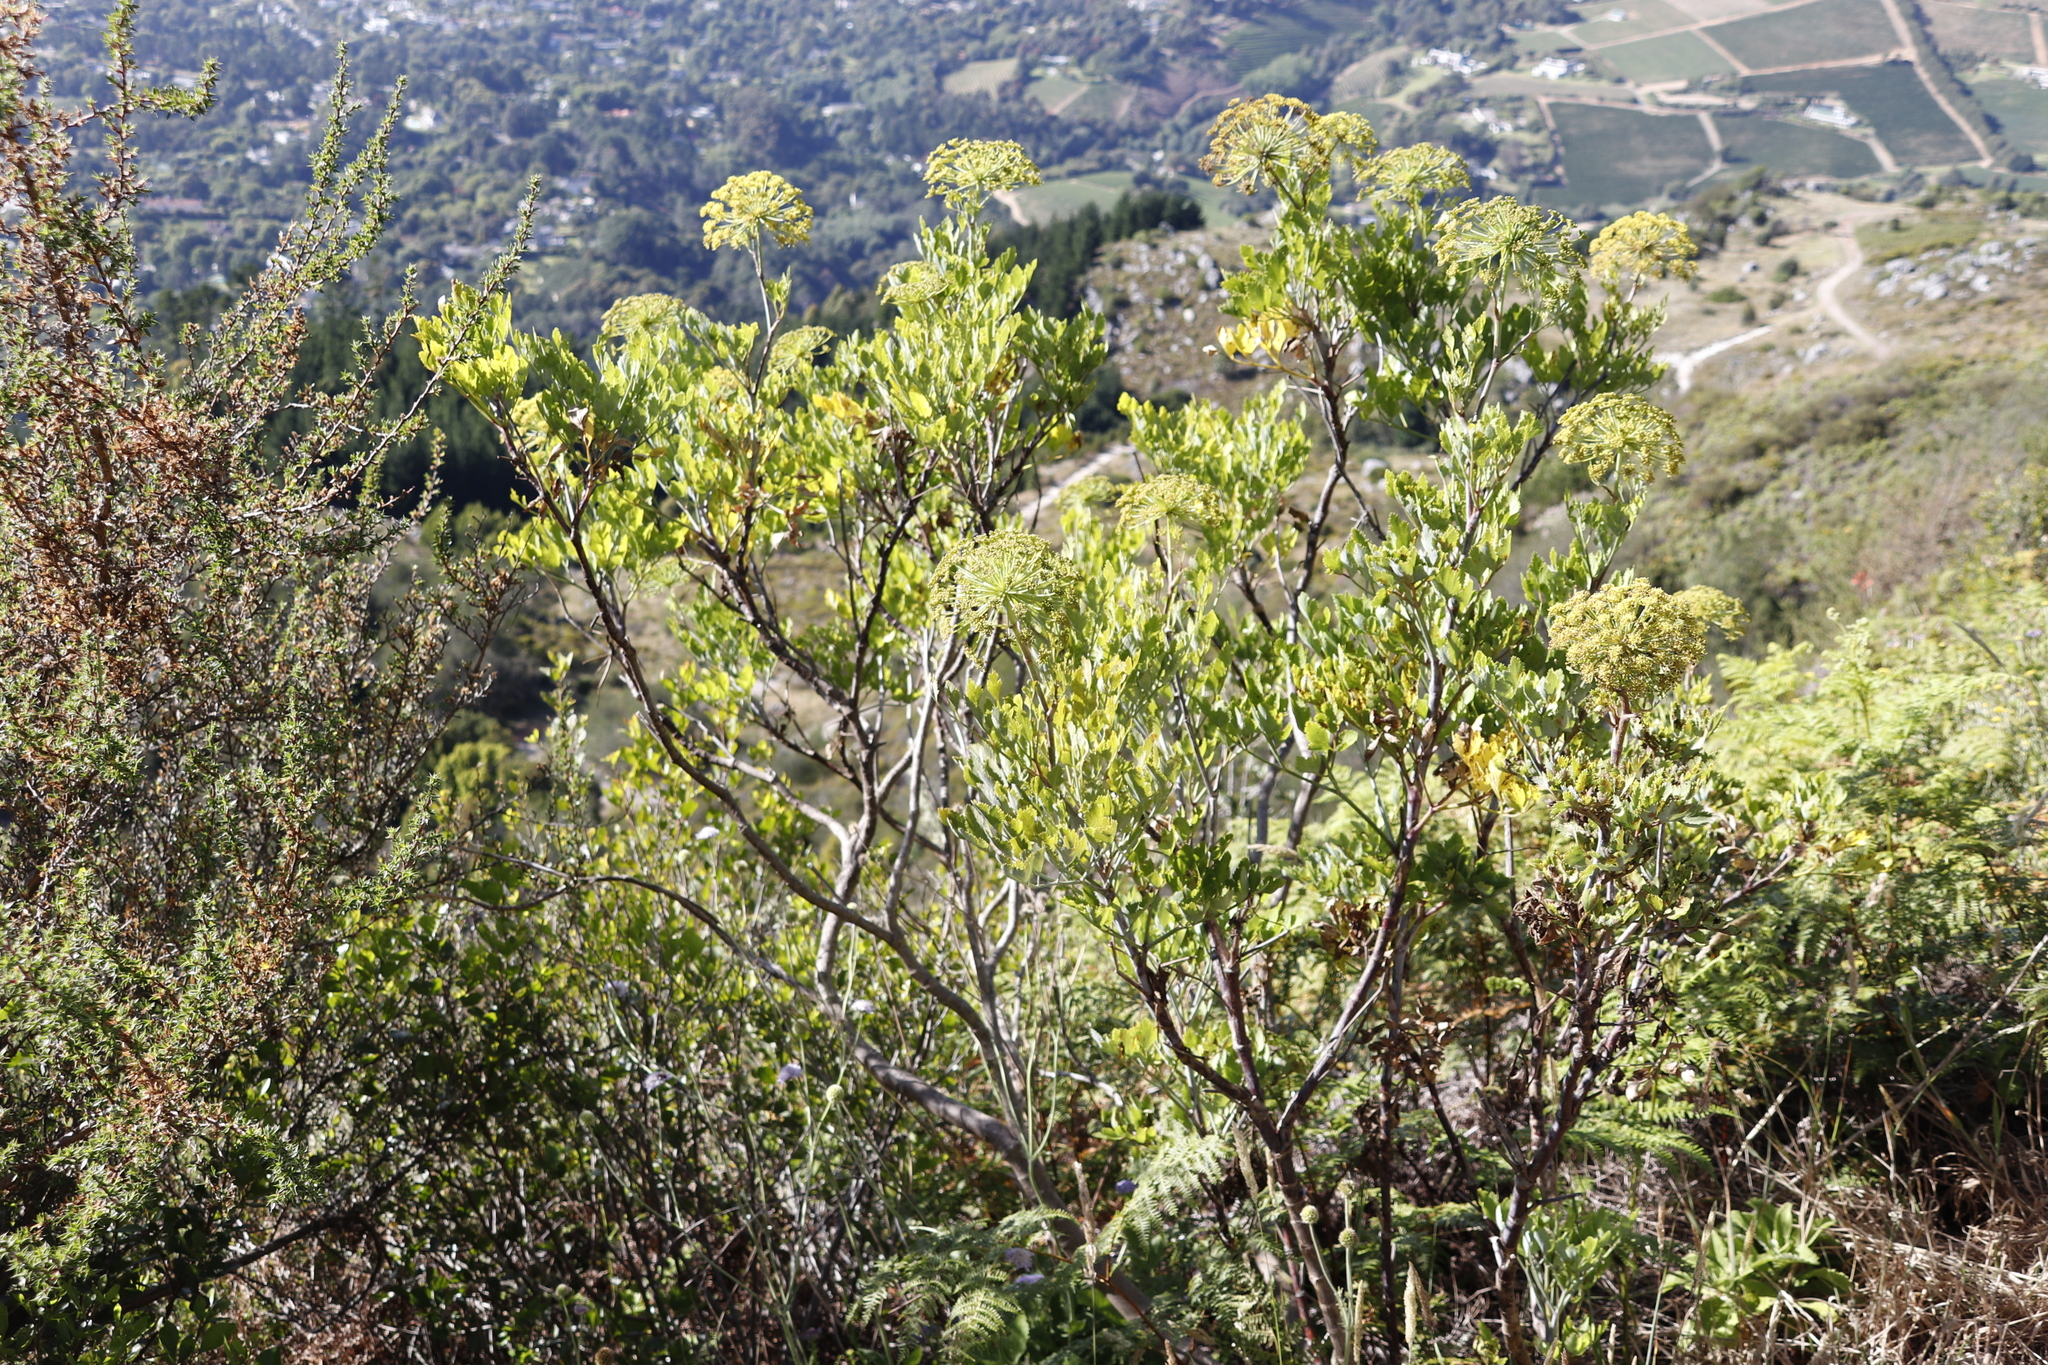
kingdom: Plantae
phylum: Tracheophyta
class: Magnoliopsida
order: Apiales
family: Apiaceae
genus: Notobubon
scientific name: Notobubon galbanum
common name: Blisterbush
